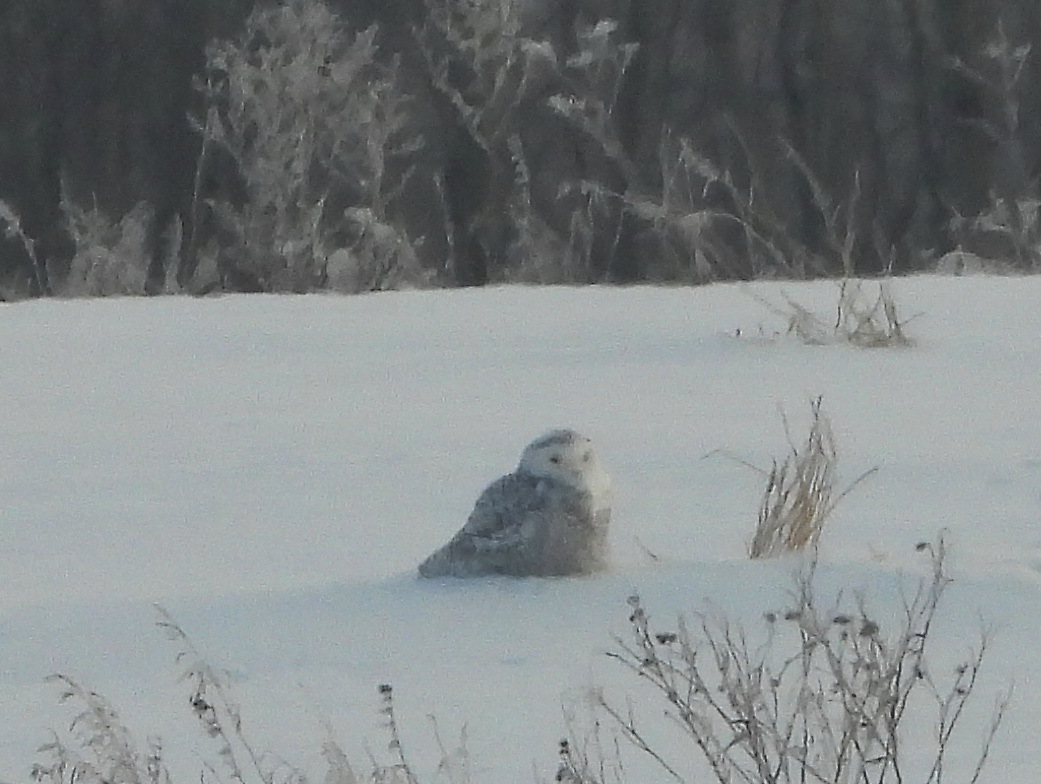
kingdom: Animalia
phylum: Chordata
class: Aves
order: Strigiformes
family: Strigidae
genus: Bubo
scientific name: Bubo scandiacus
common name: Snowy owl
